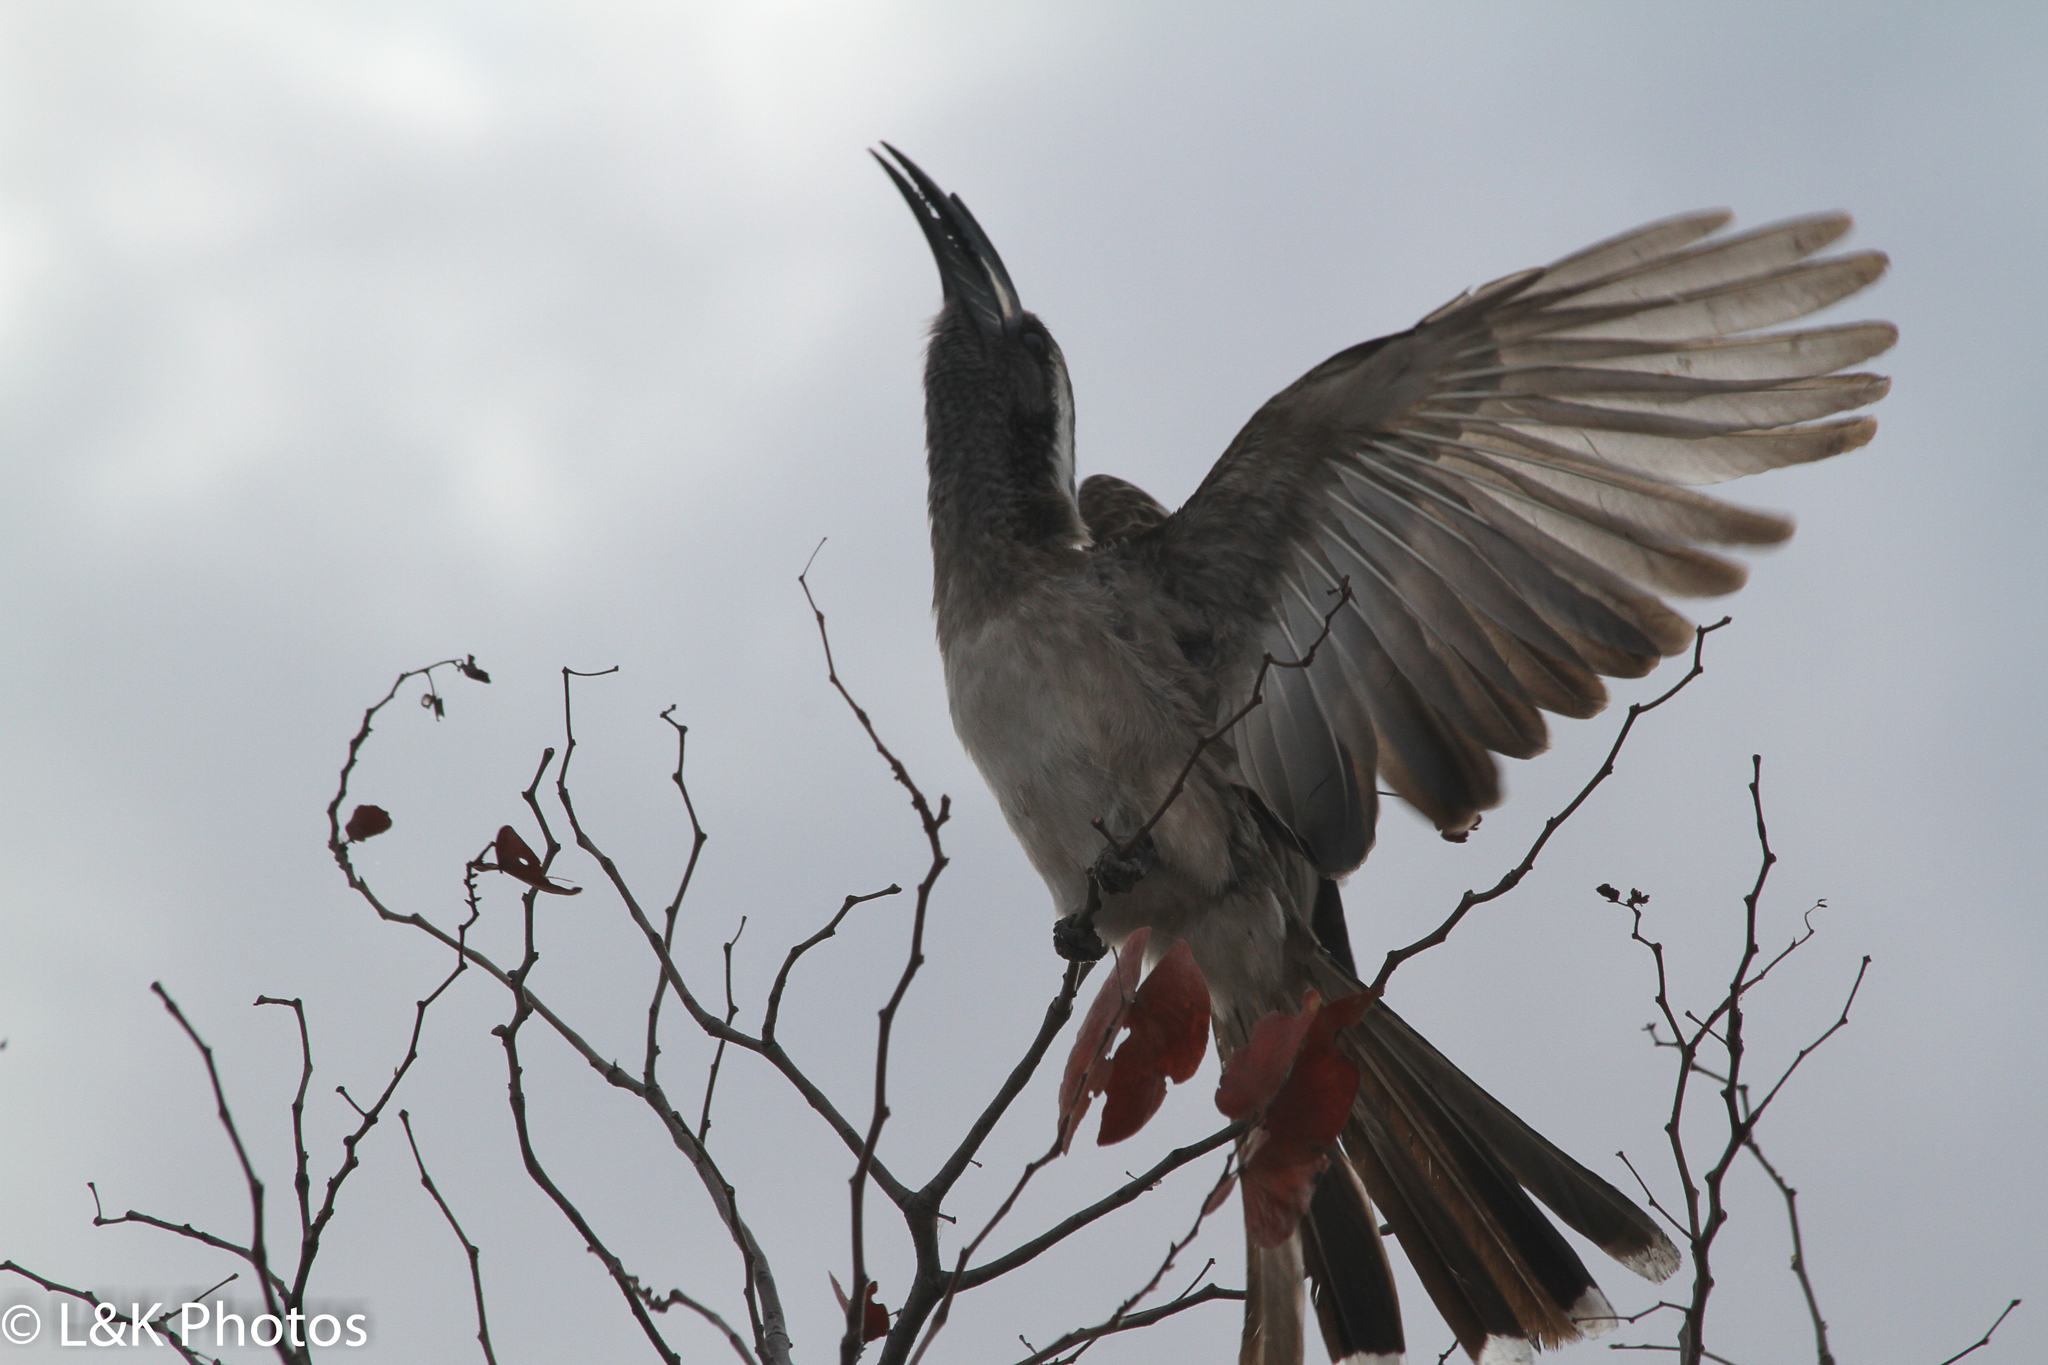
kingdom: Animalia
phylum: Chordata
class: Aves
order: Bucerotiformes
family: Bucerotidae
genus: Lophoceros
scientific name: Lophoceros nasutus
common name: African grey hornbill
